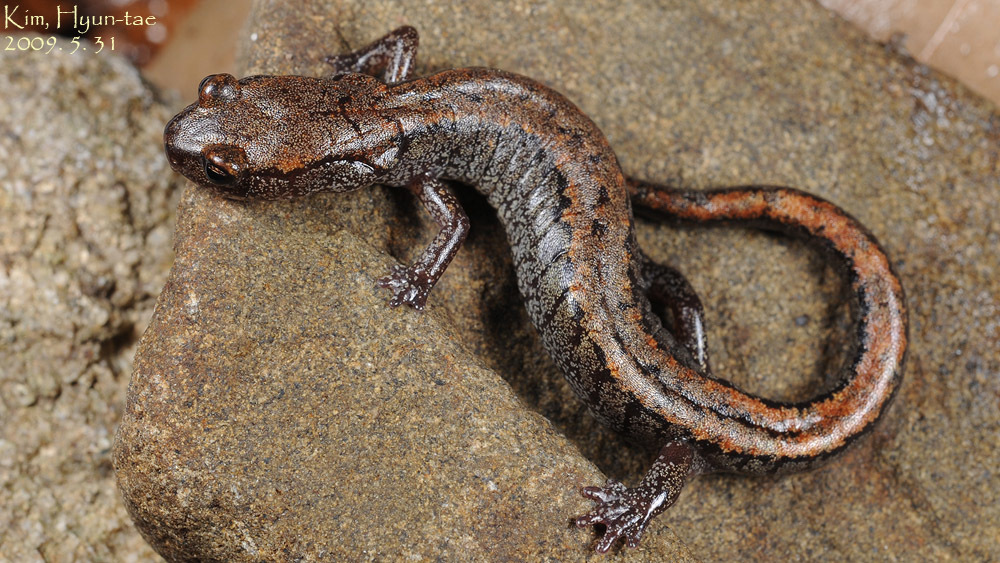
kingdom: Animalia
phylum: Chordata
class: Amphibia
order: Caudata
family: Plethodontidae
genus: Karsenia
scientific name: Karsenia koreana
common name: Korean crevice salamander
